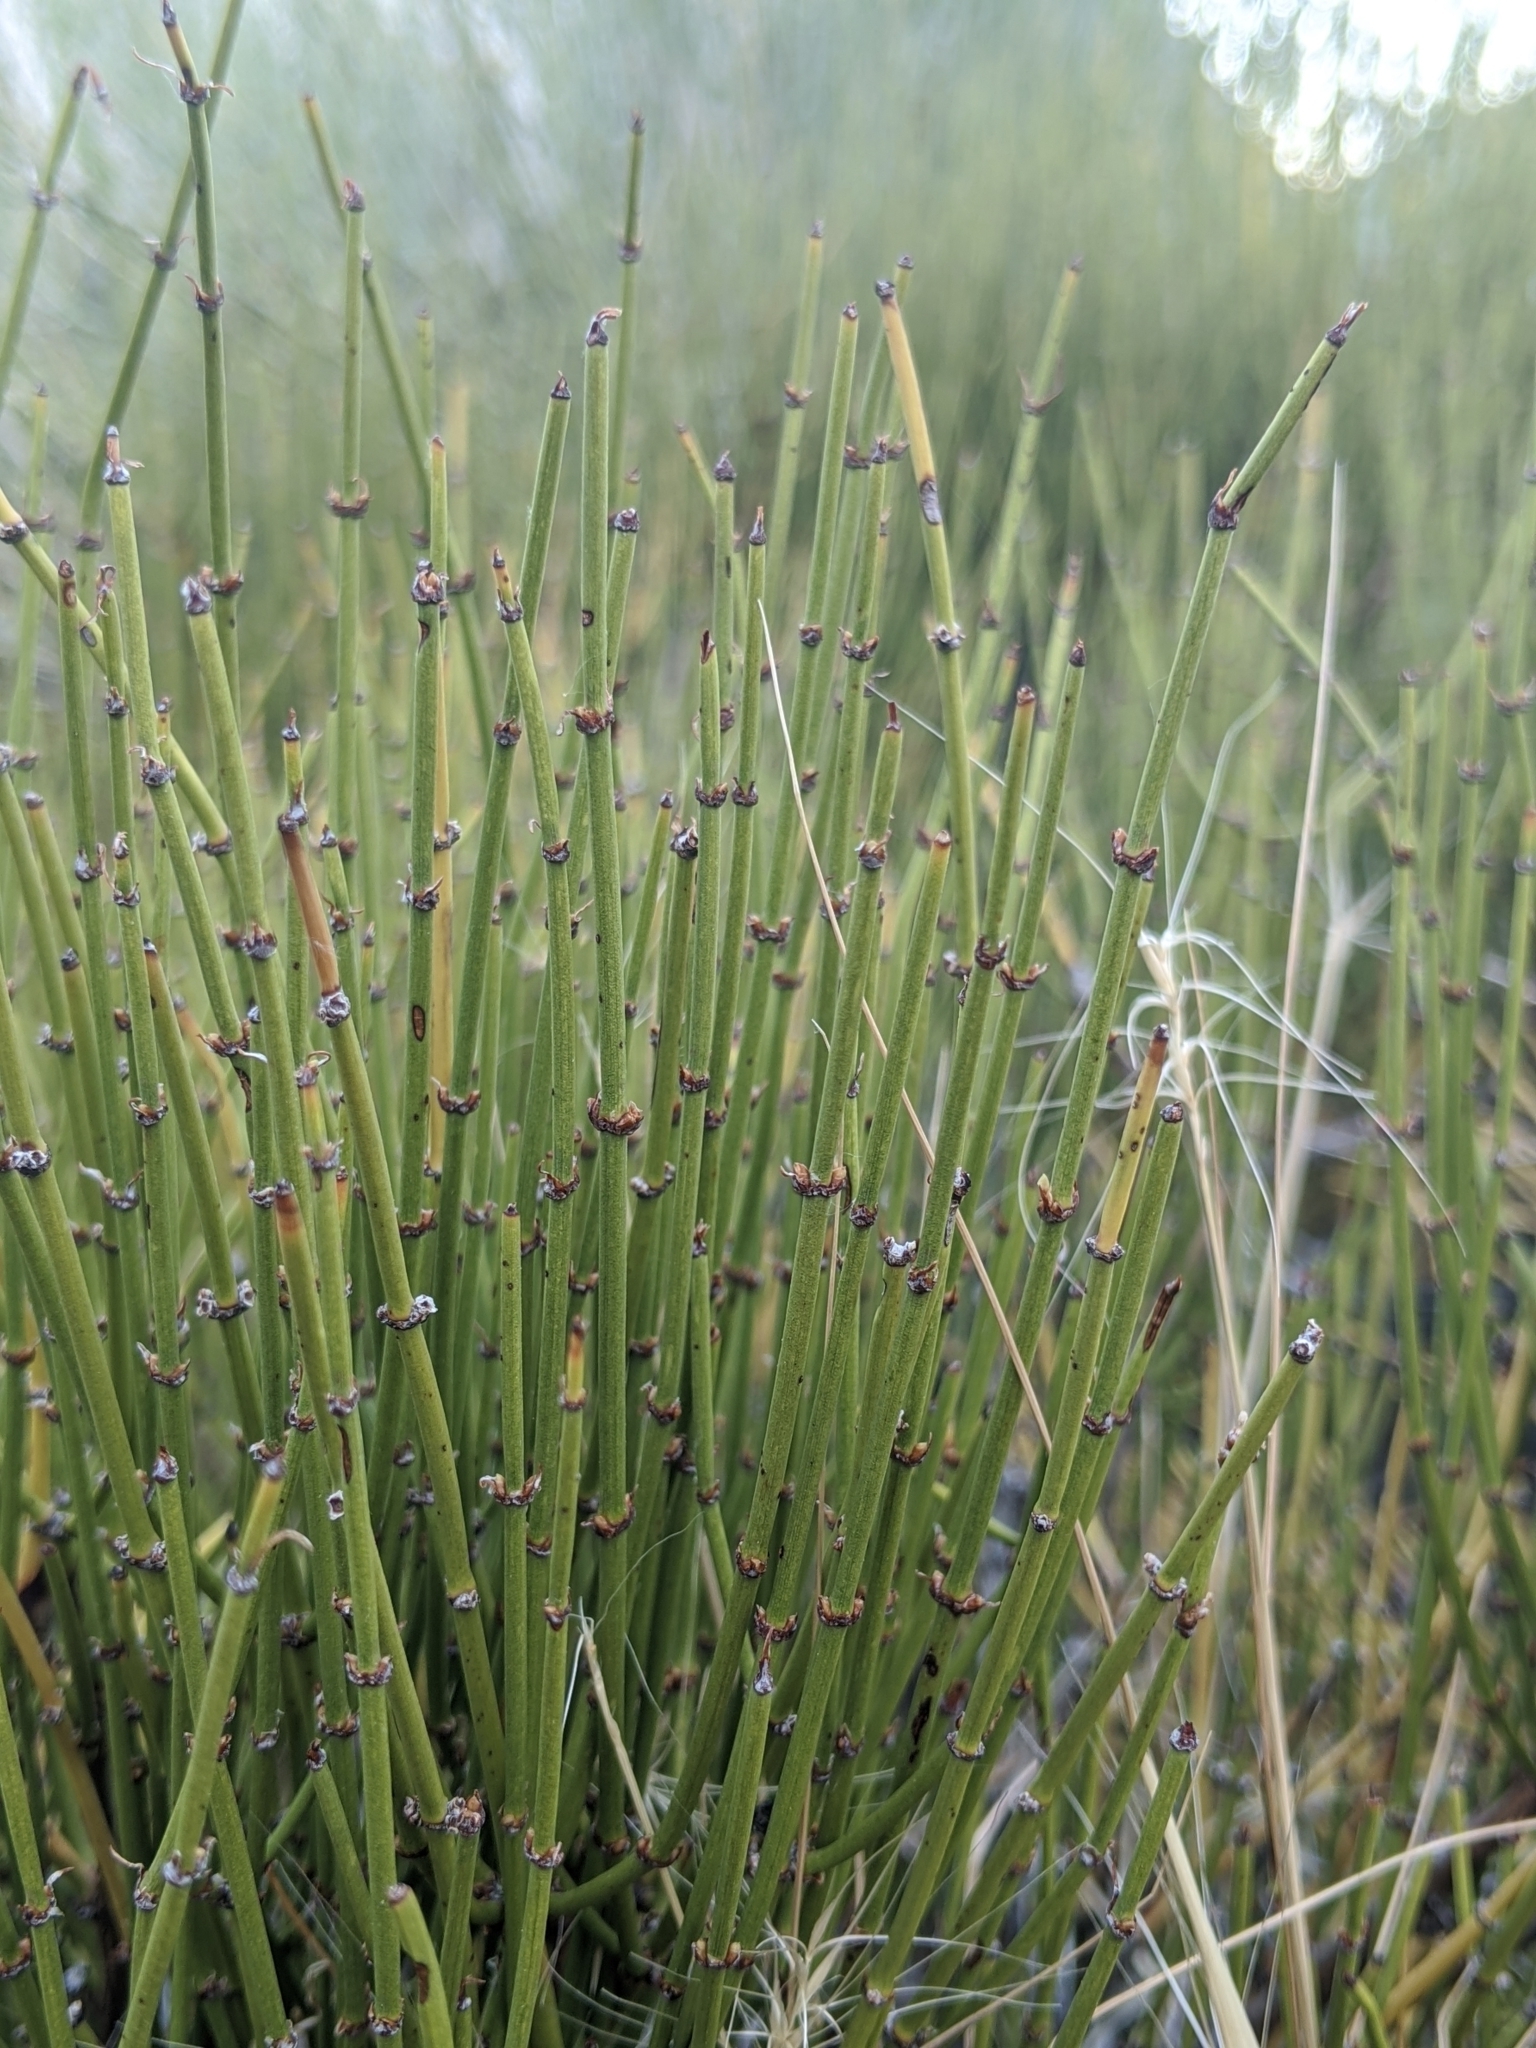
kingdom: Plantae
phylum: Tracheophyta
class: Gnetopsida
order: Ephedrales
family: Ephedraceae
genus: Ephedra
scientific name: Ephedra viridis
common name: Green ephedra
